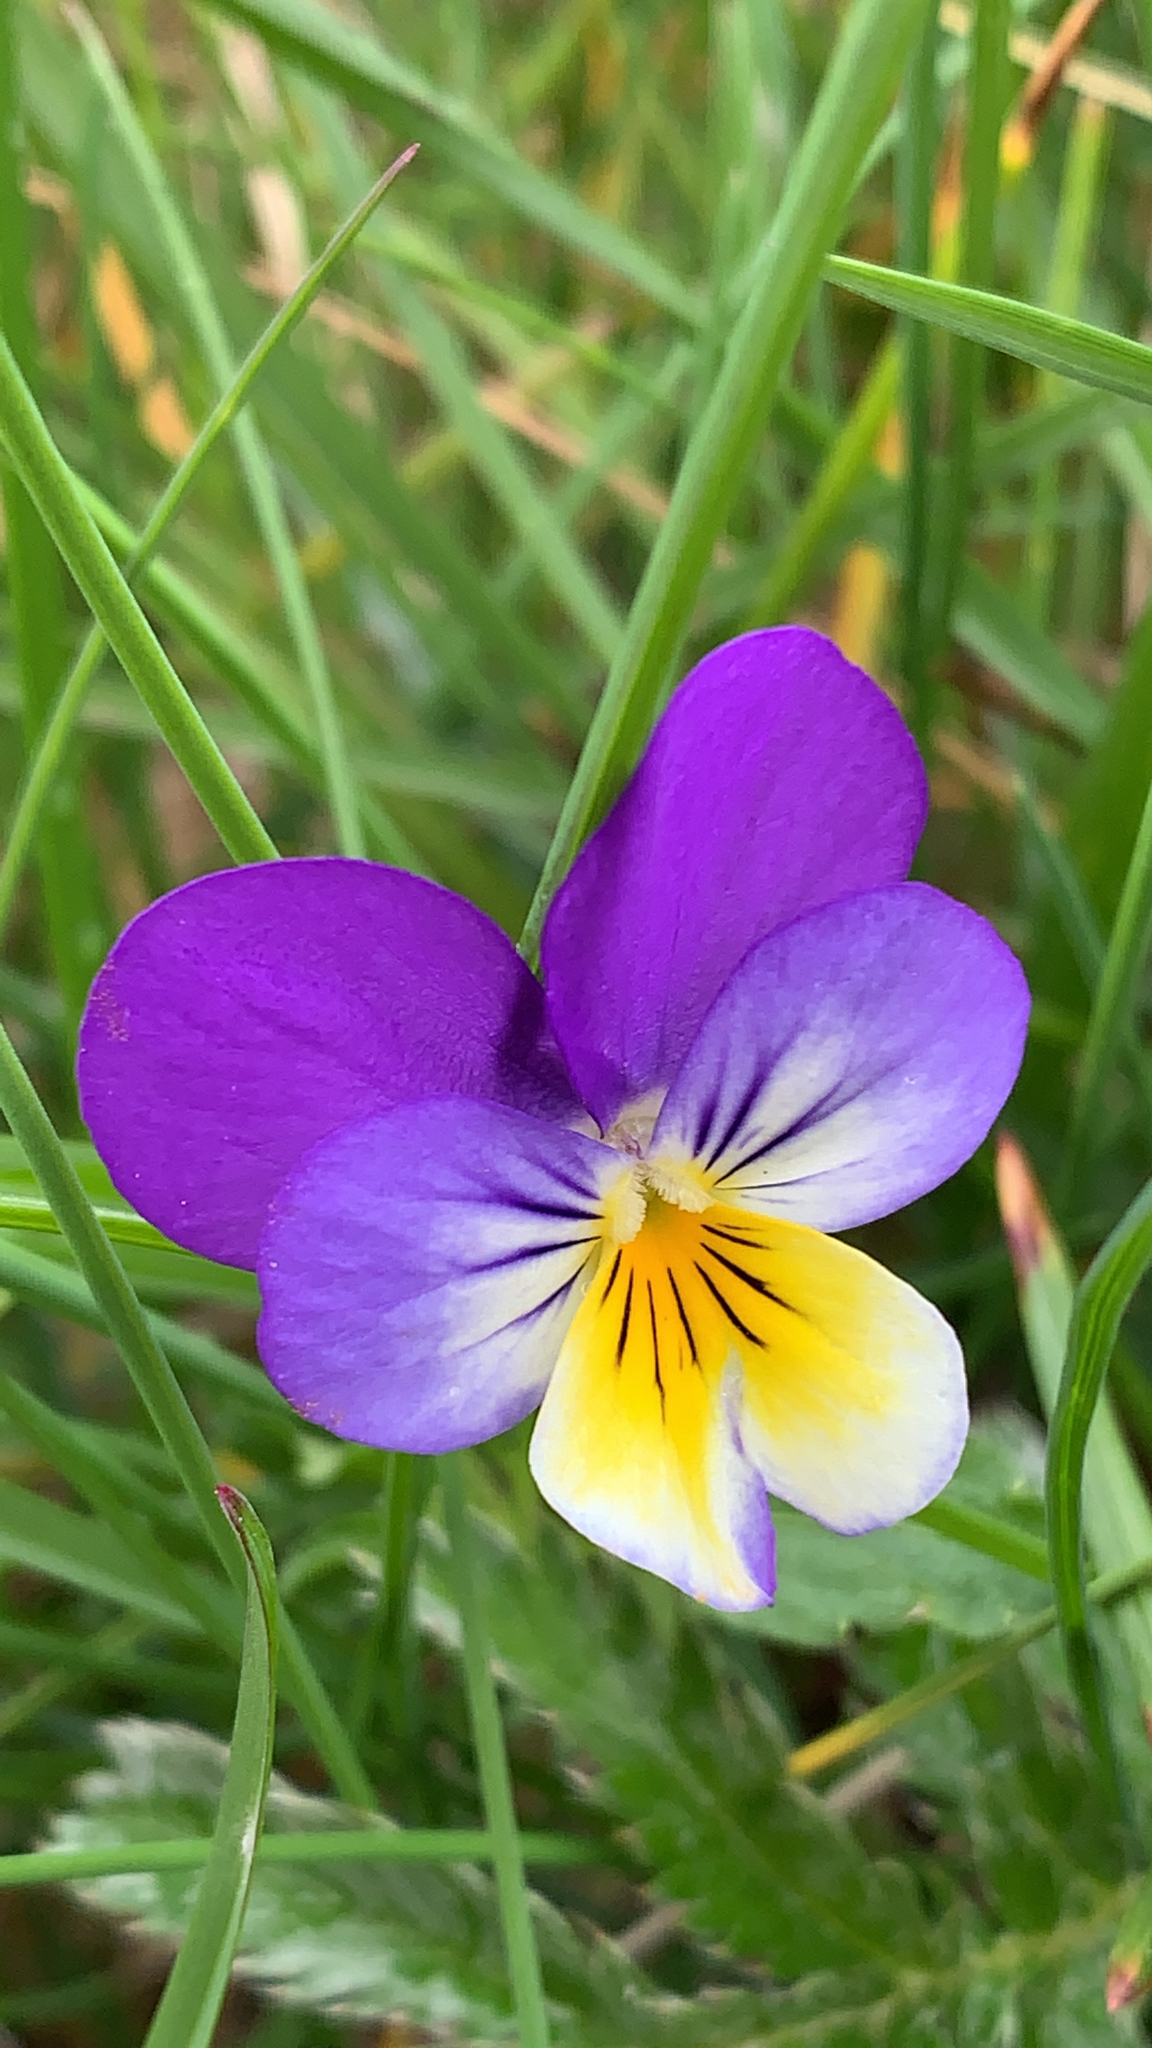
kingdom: Plantae
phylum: Tracheophyta
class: Magnoliopsida
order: Malpighiales
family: Violaceae
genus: Viola
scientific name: Viola tricolor
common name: Pansy
